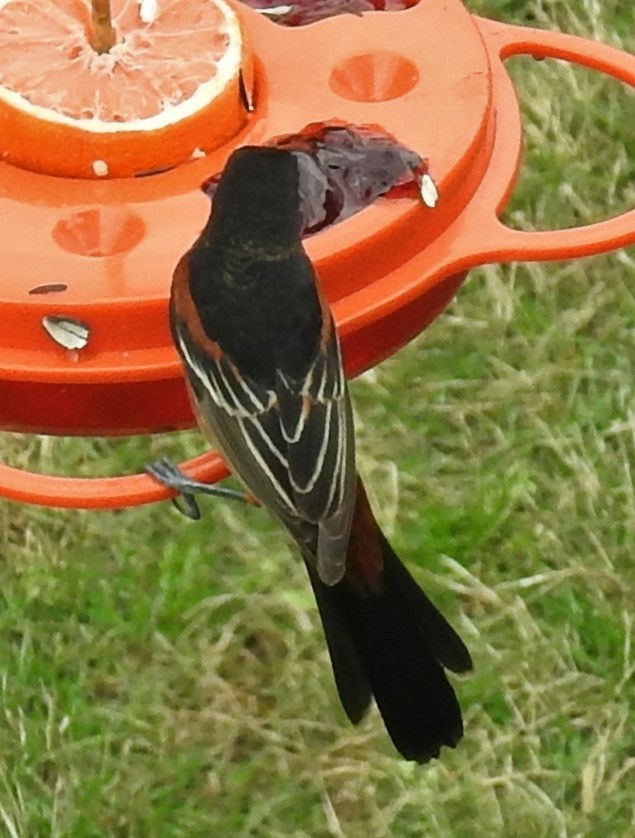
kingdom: Animalia
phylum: Chordata
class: Aves
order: Passeriformes
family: Icteridae
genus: Icterus
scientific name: Icterus spurius
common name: Orchard oriole
